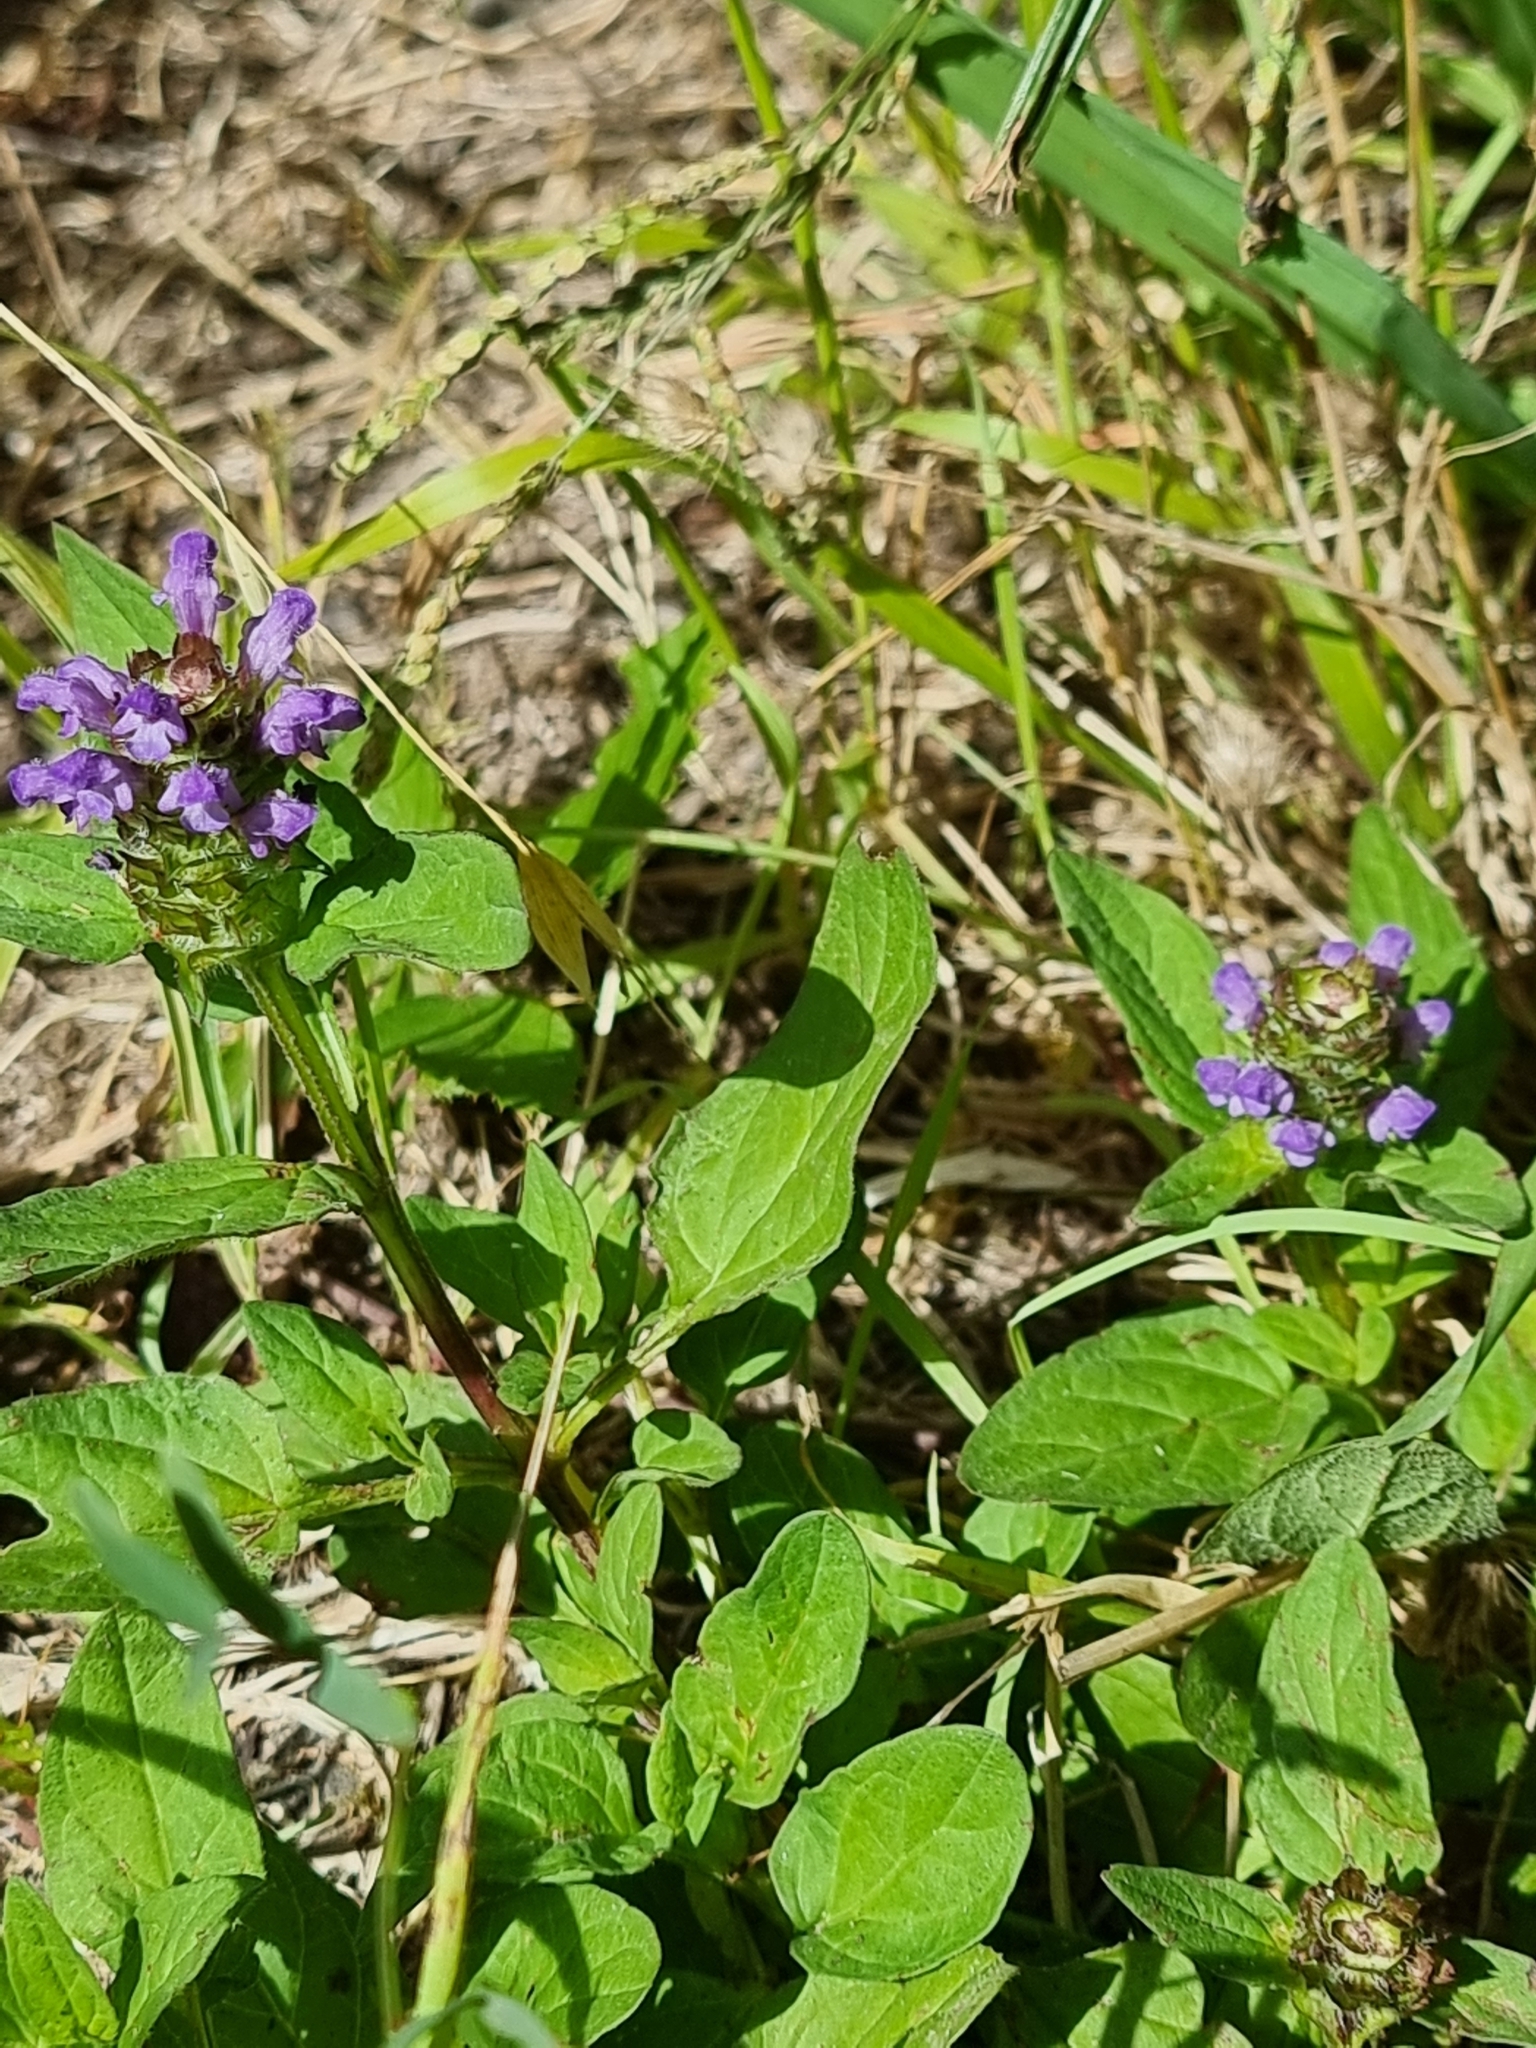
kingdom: Plantae
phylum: Tracheophyta
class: Magnoliopsida
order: Lamiales
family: Lamiaceae
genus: Prunella
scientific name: Prunella vulgaris
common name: Heal-all
